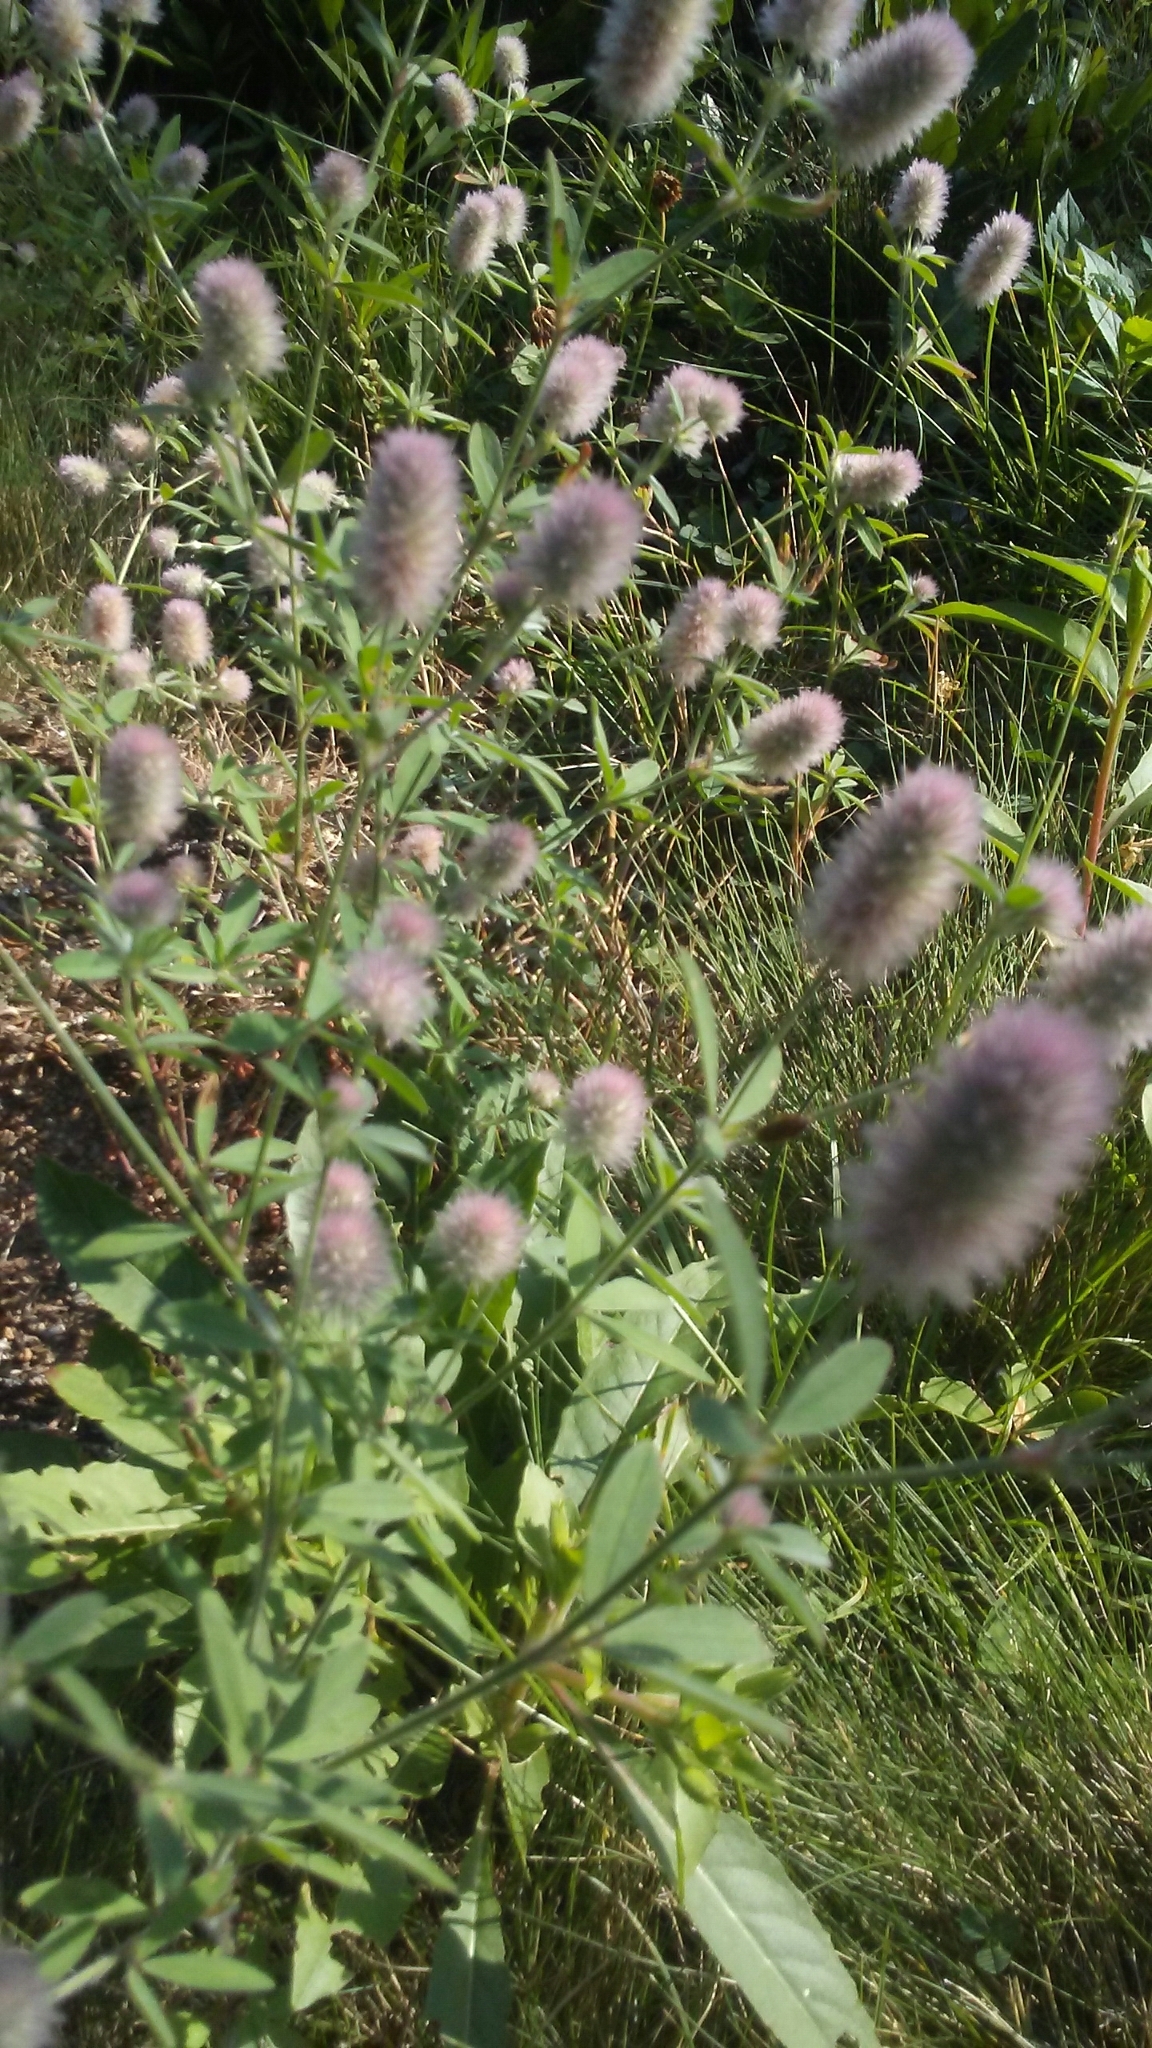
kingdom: Plantae
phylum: Tracheophyta
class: Magnoliopsida
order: Fabales
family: Fabaceae
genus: Trifolium
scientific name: Trifolium arvense
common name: Hare's-foot clover
